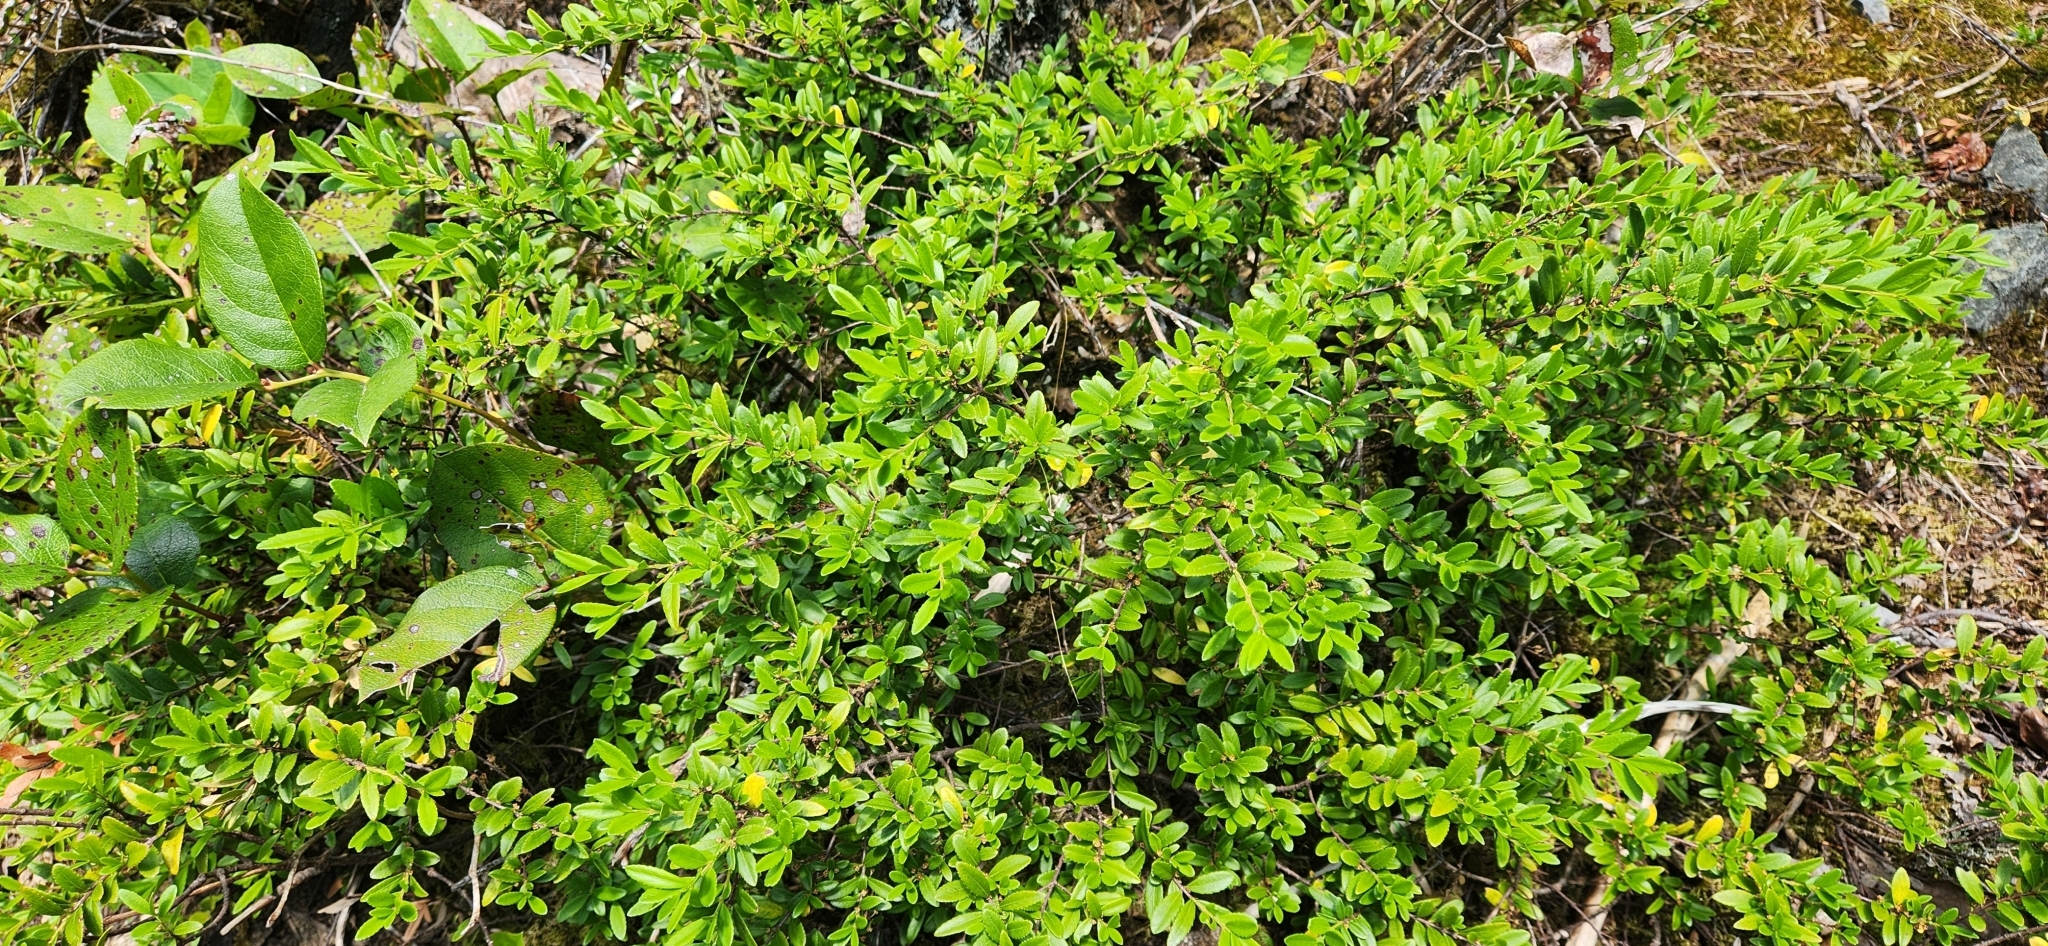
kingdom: Plantae
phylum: Tracheophyta
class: Magnoliopsida
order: Celastrales
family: Celastraceae
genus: Paxistima
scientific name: Paxistima myrsinites
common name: Mountain-lover
